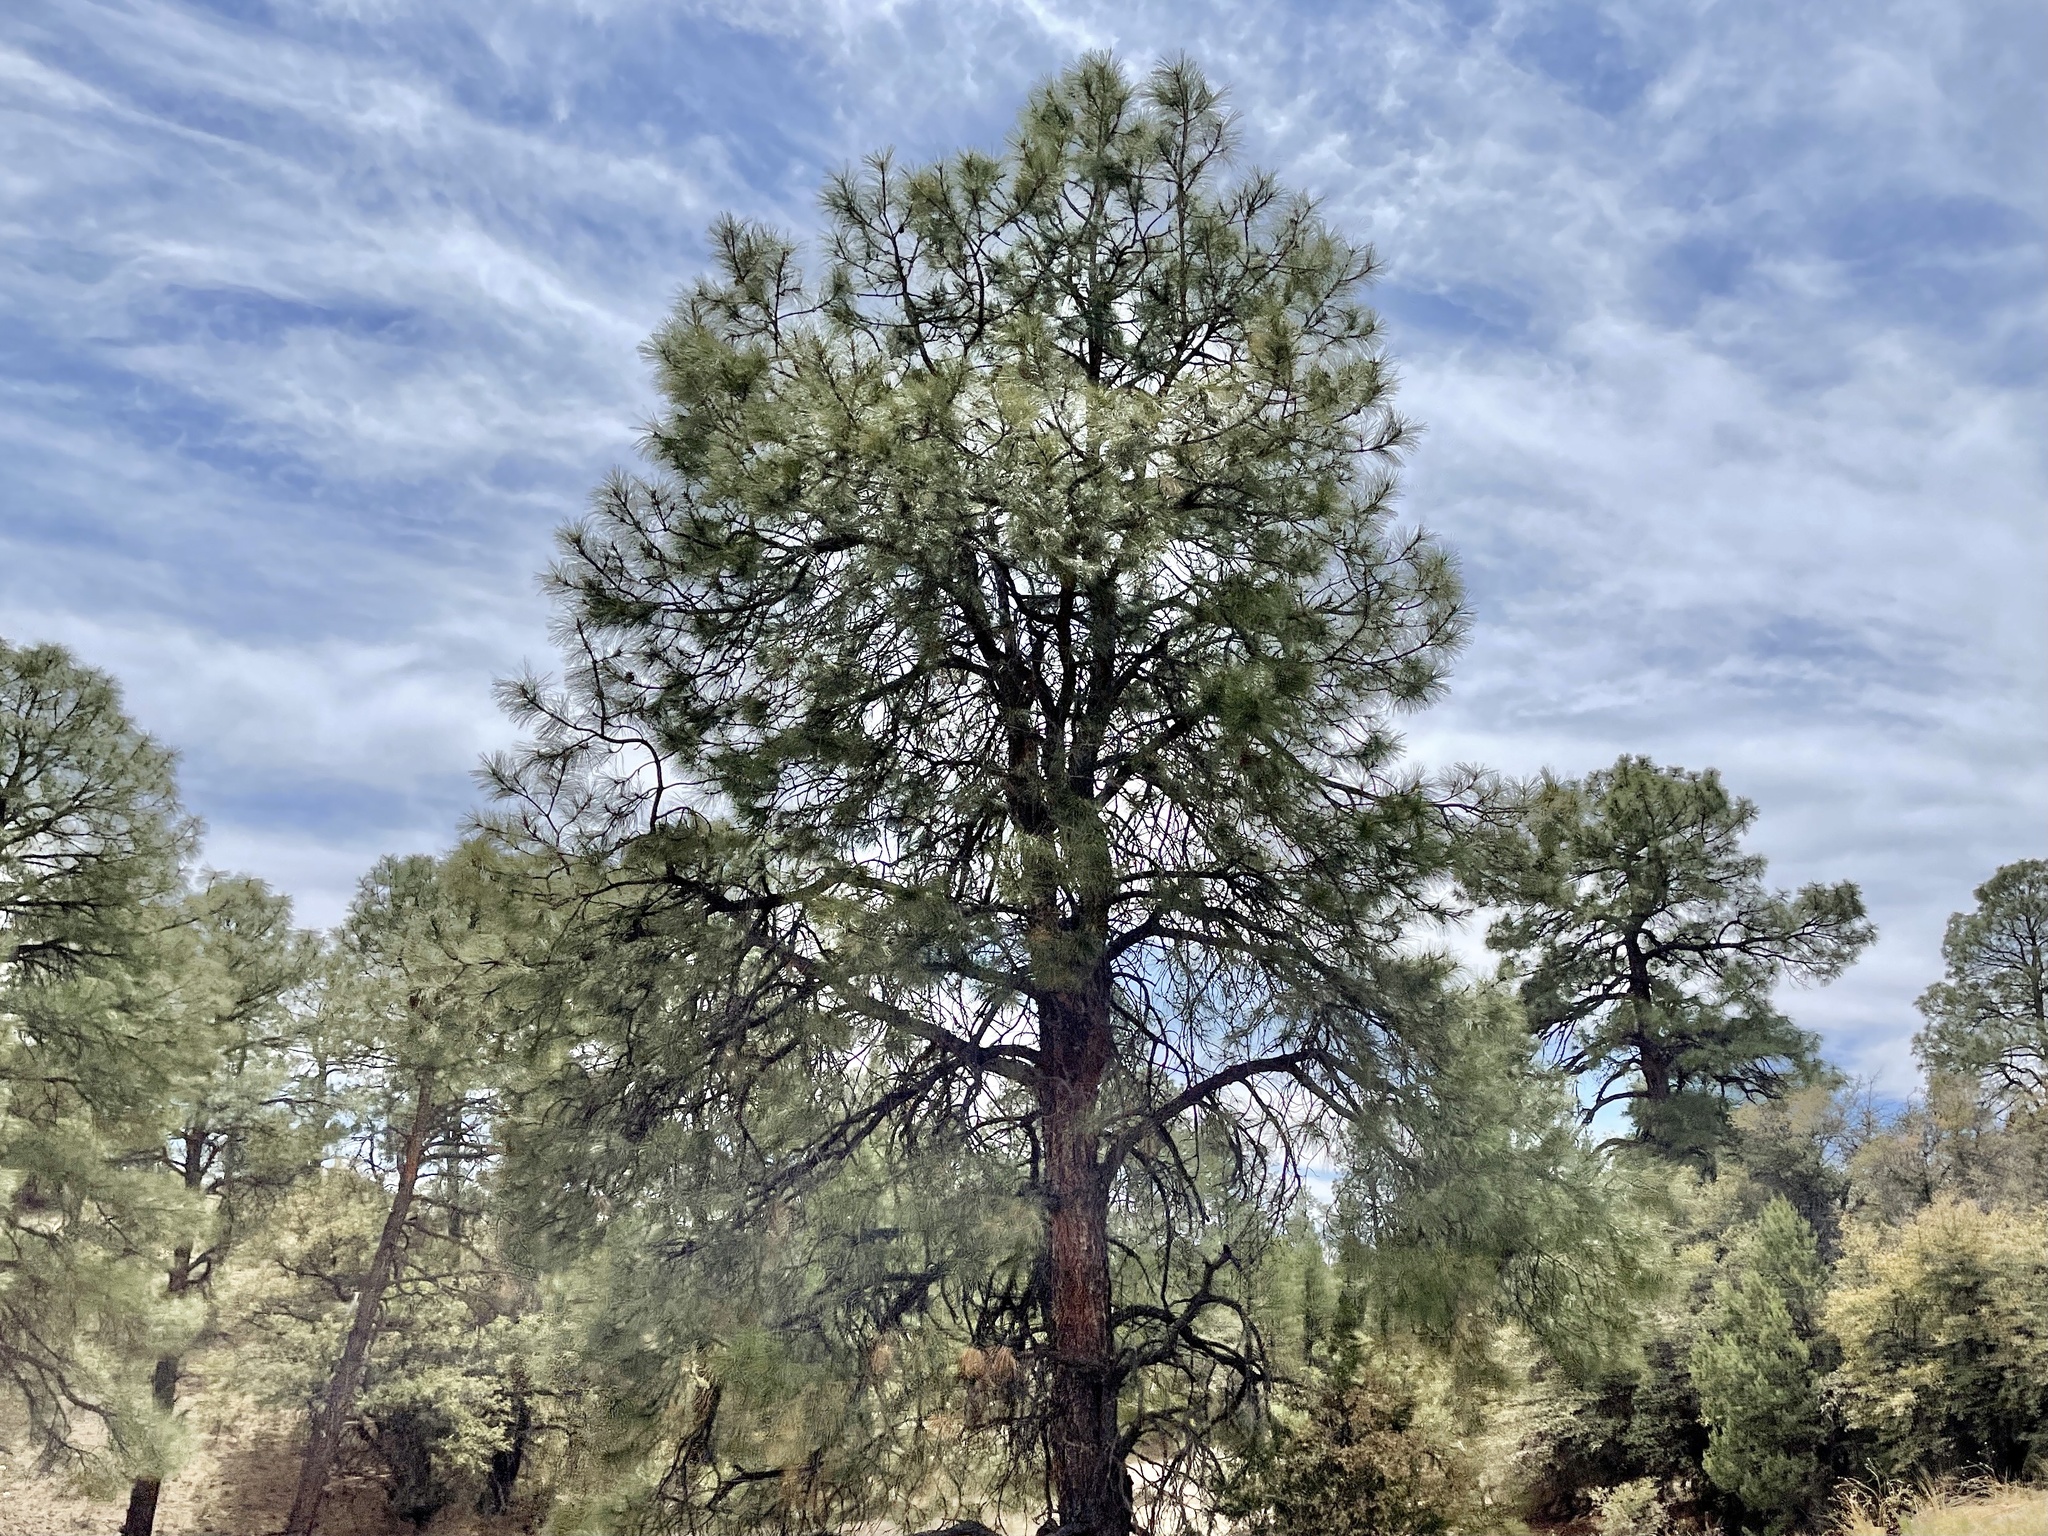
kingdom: Plantae
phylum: Tracheophyta
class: Pinopsida
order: Pinales
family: Pinaceae
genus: Pinus
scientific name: Pinus ponderosa
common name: Western yellow-pine
